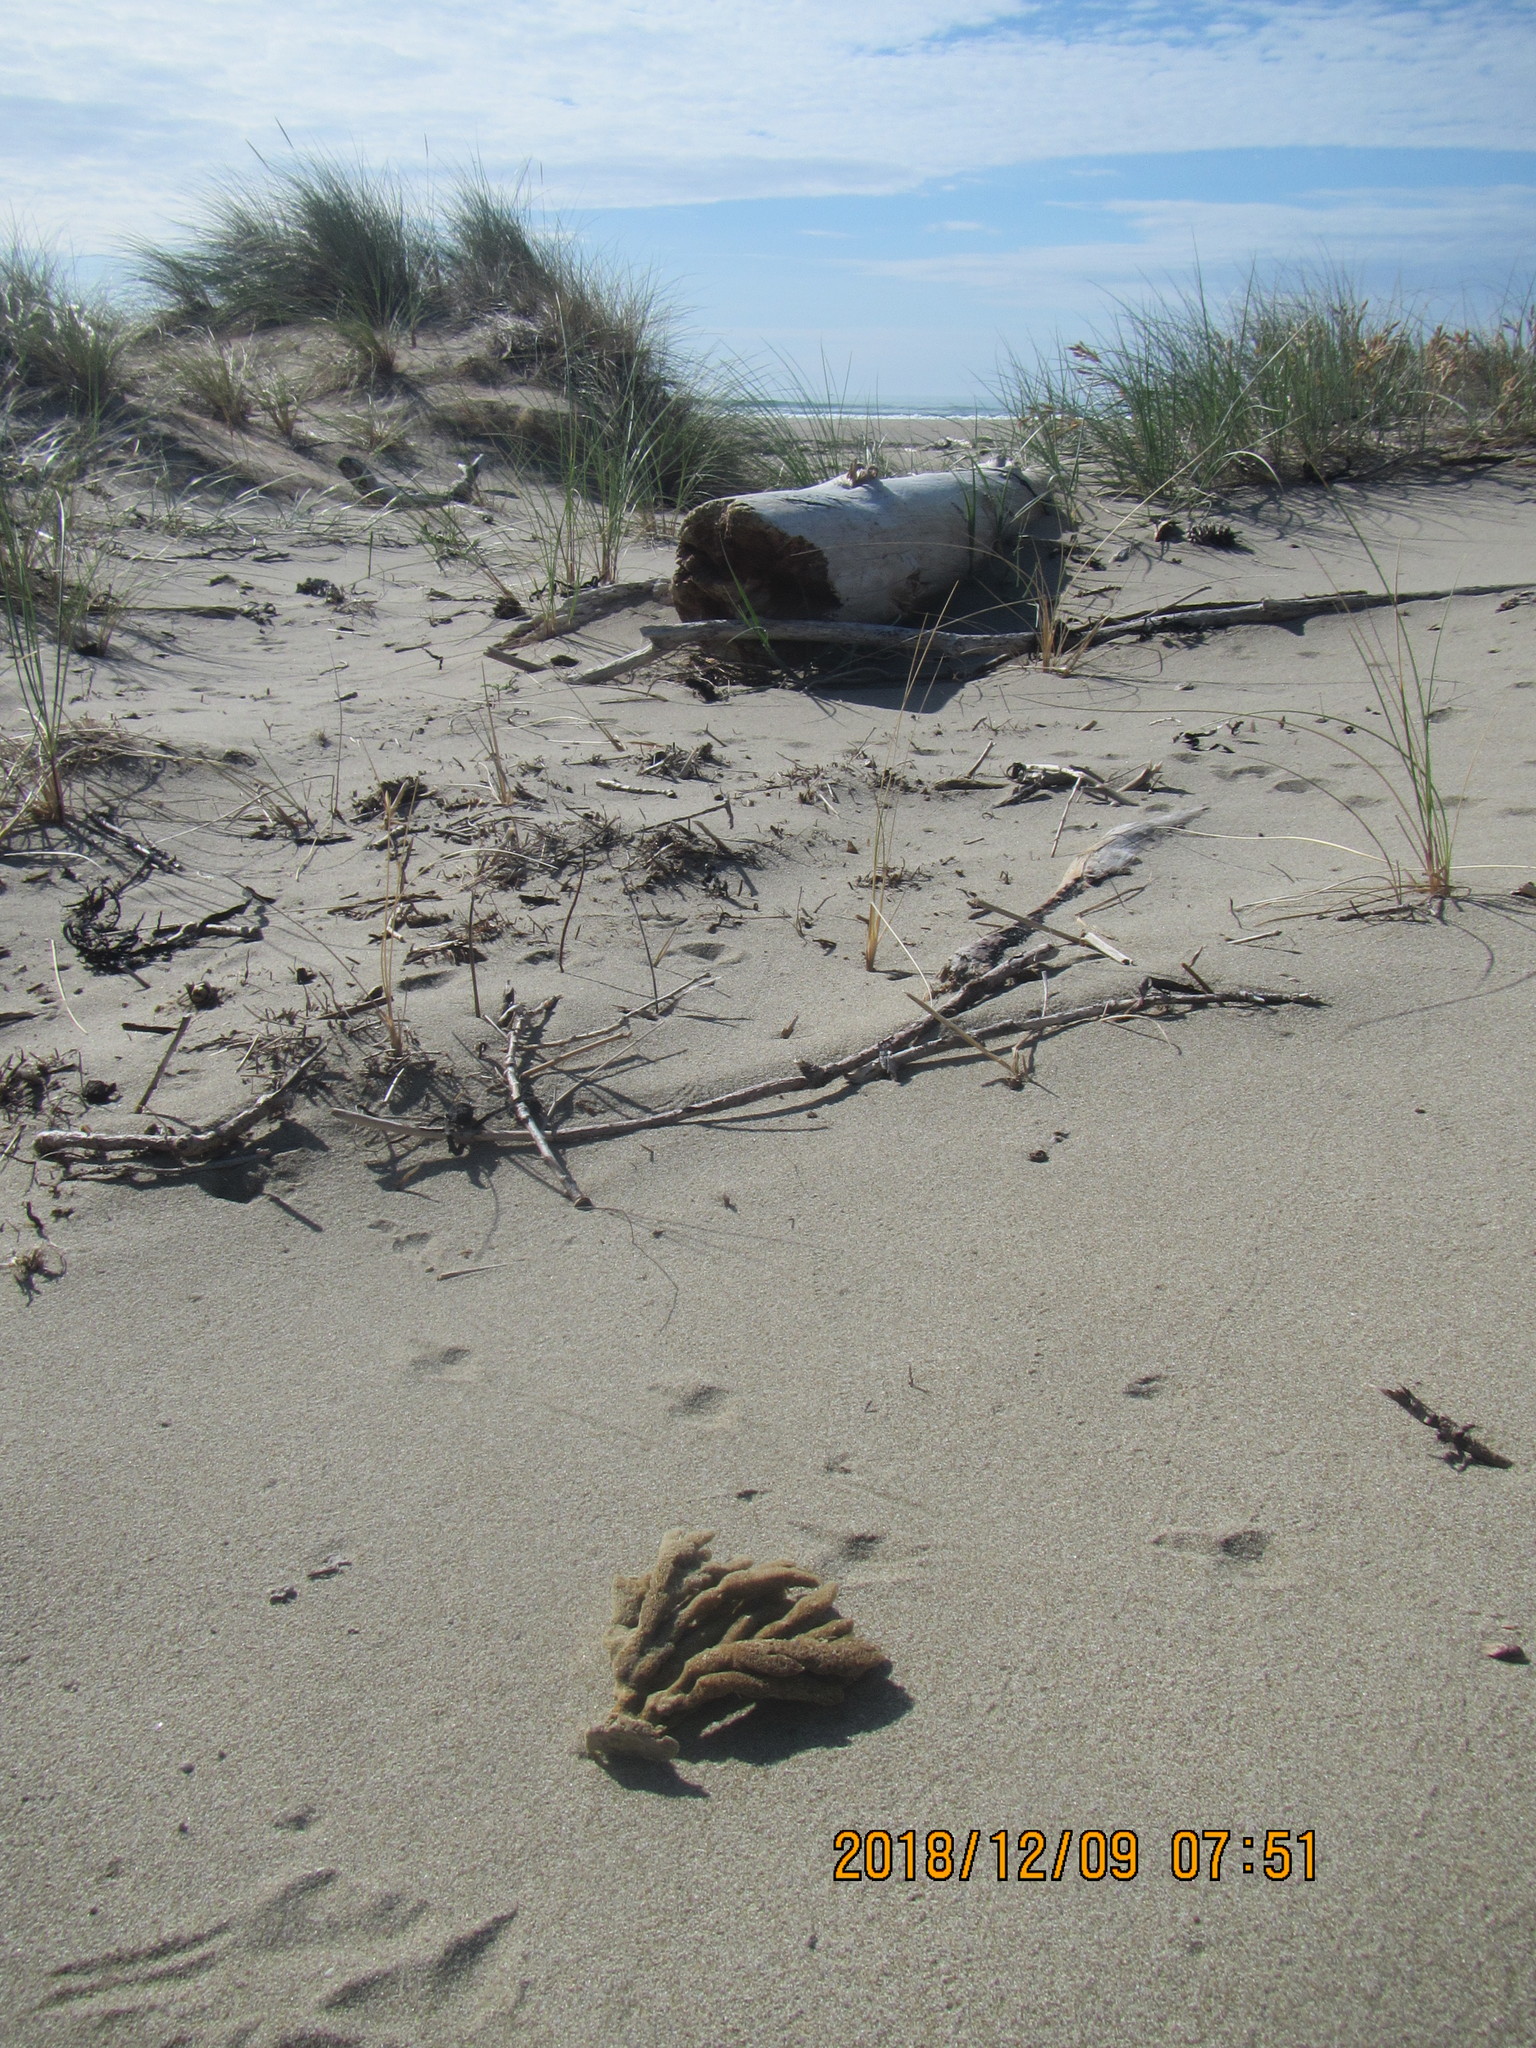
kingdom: Animalia
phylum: Porifera
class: Demospongiae
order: Haplosclerida
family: Callyspongiidae
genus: Dactylia
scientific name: Dactylia varia
